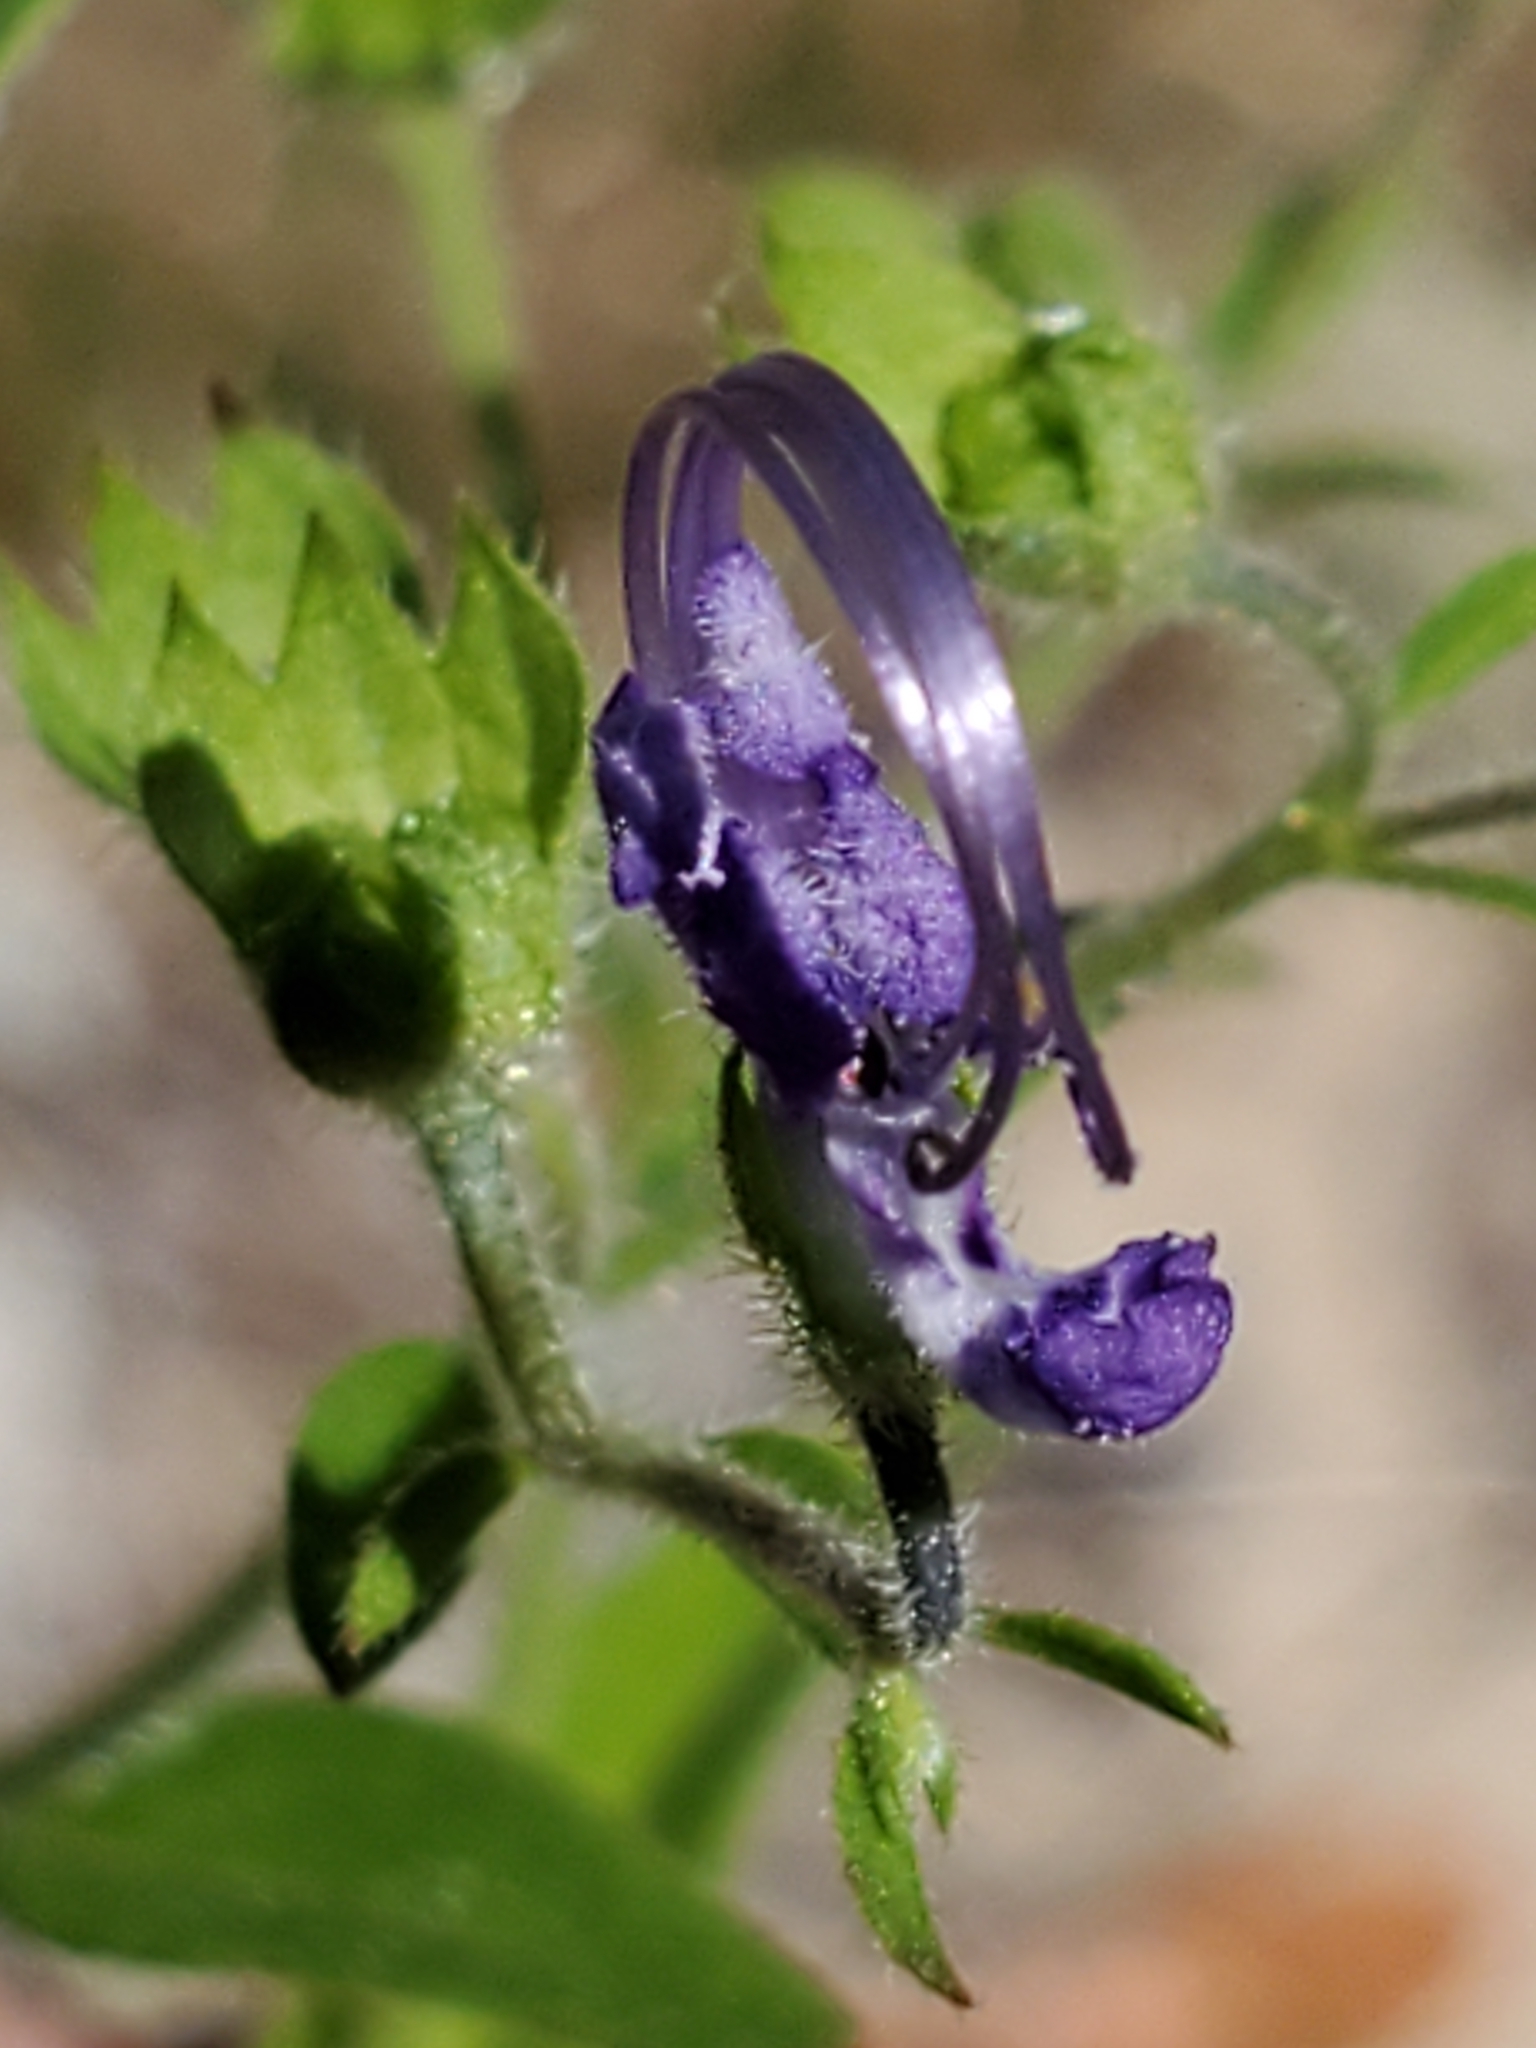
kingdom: Plantae
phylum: Tracheophyta
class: Magnoliopsida
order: Lamiales
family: Lamiaceae
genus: Trichostema
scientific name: Trichostema dichotomum
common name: Bastard pennyroyal
